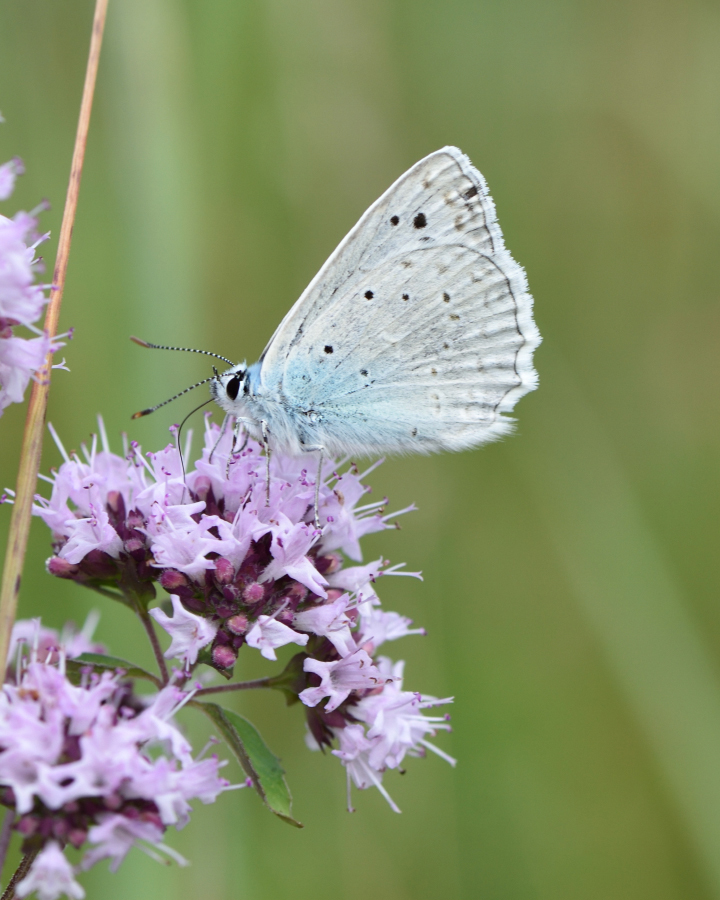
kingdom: Animalia
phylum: Arthropoda
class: Insecta
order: Lepidoptera
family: Lycaenidae
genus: Polyommatus
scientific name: Polyommatus daphnis
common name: Meleager's blue
